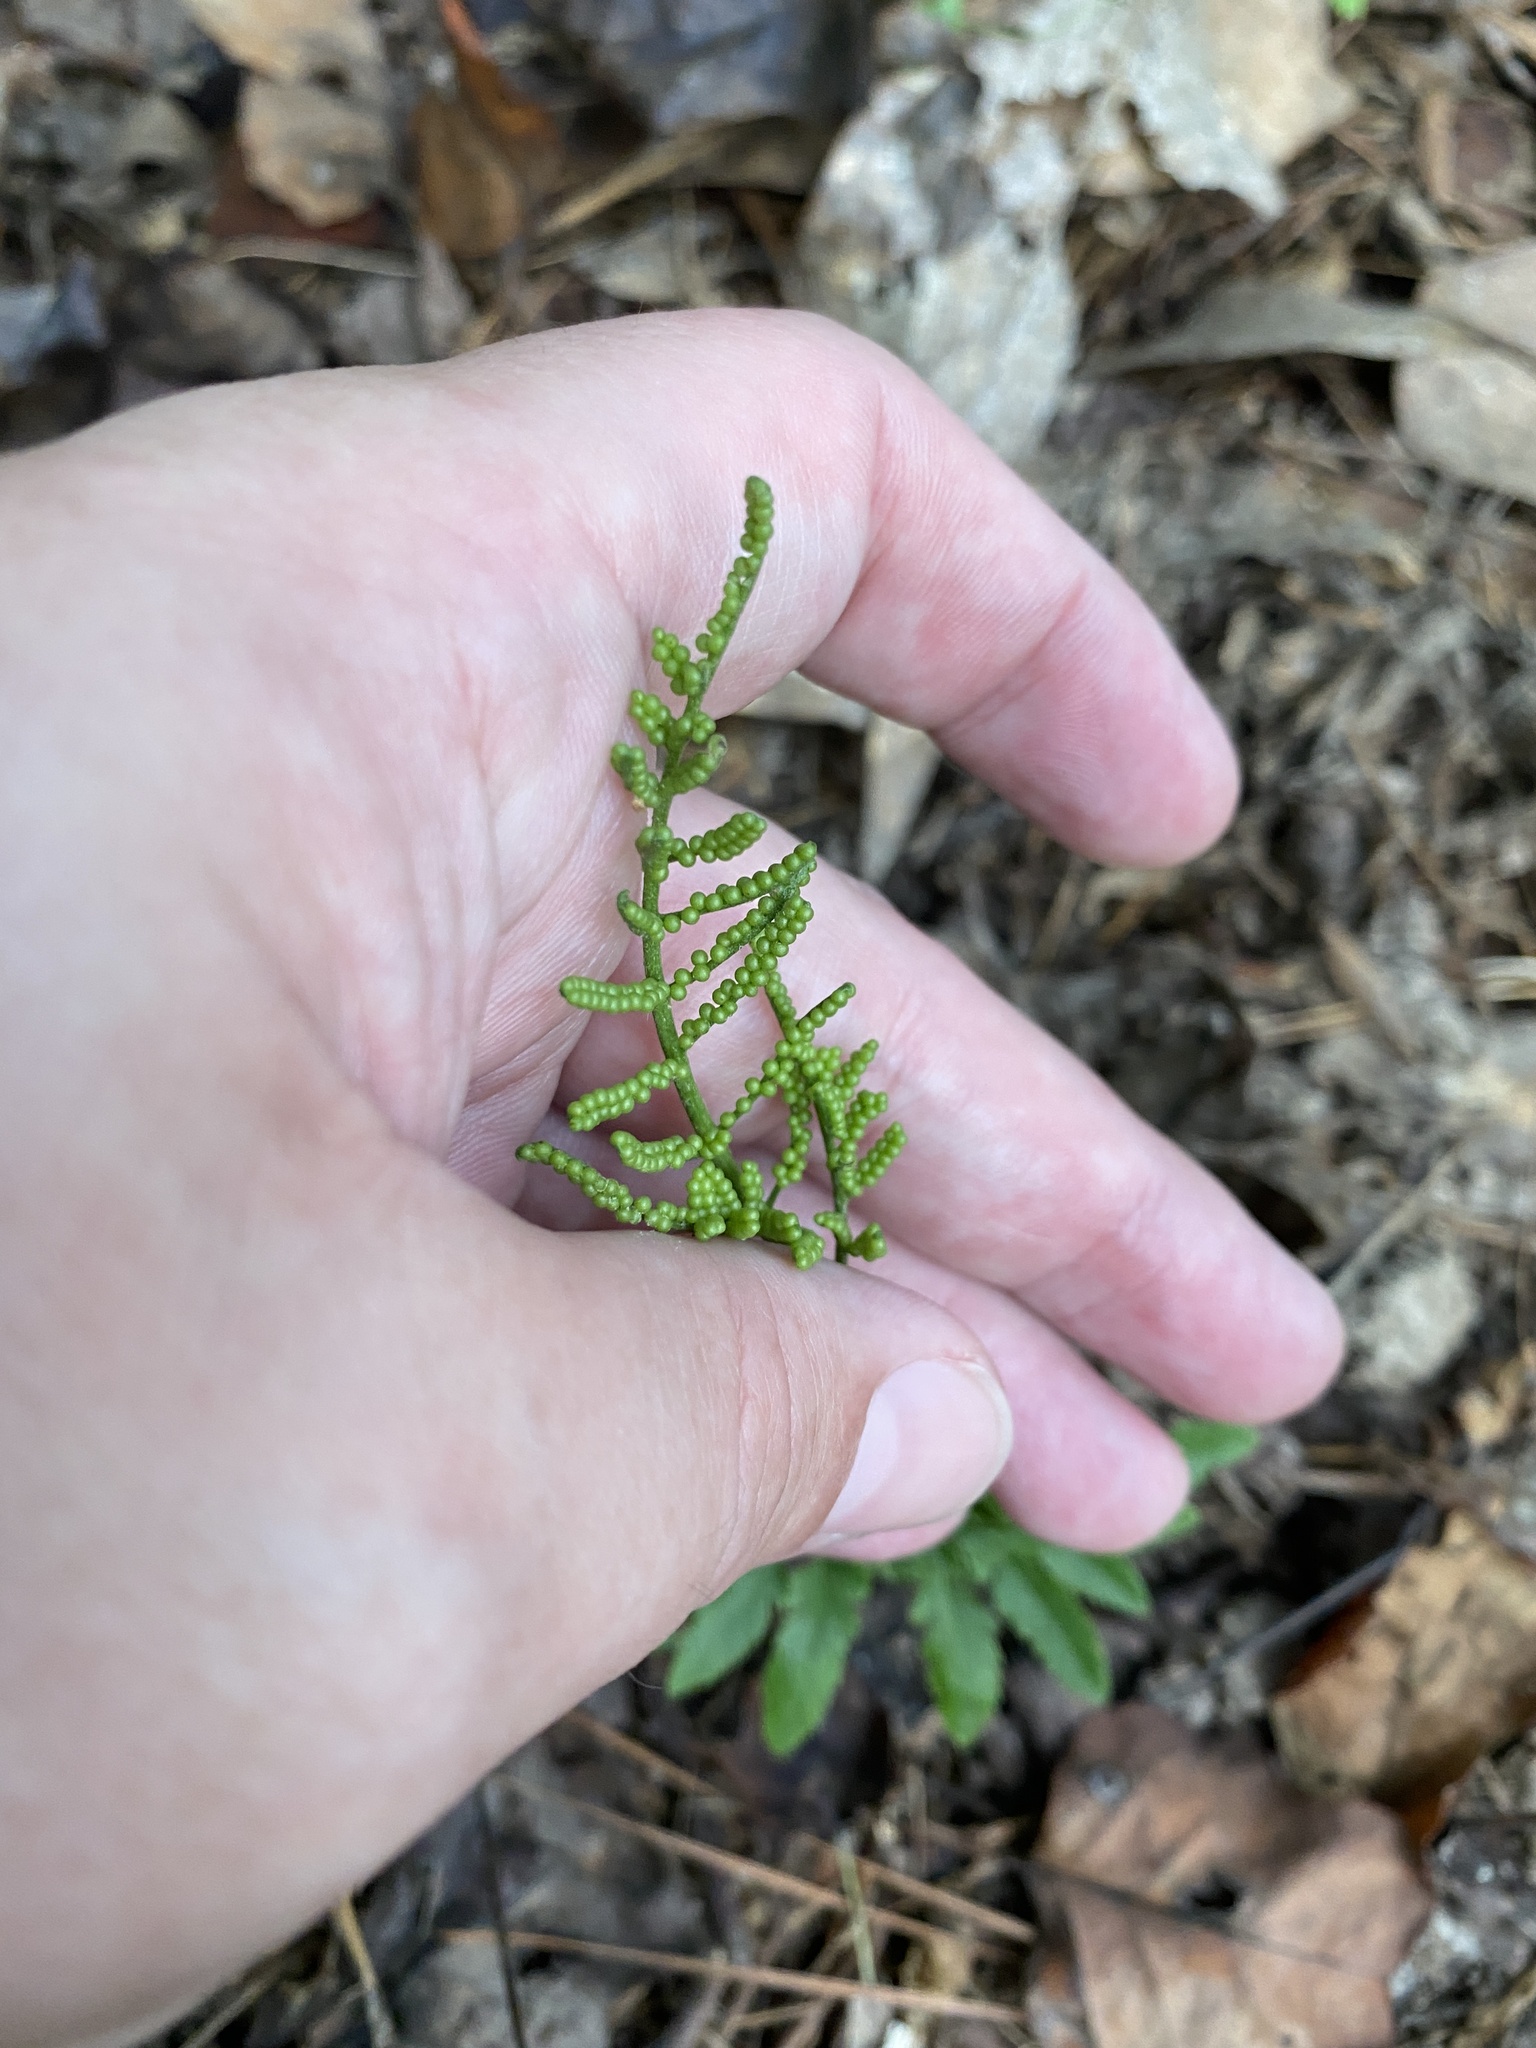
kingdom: Plantae
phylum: Tracheophyta
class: Polypodiopsida
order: Ophioglossales
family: Ophioglossaceae
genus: Sceptridium
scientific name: Sceptridium biternatum
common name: Sparse-lobed grapefern
